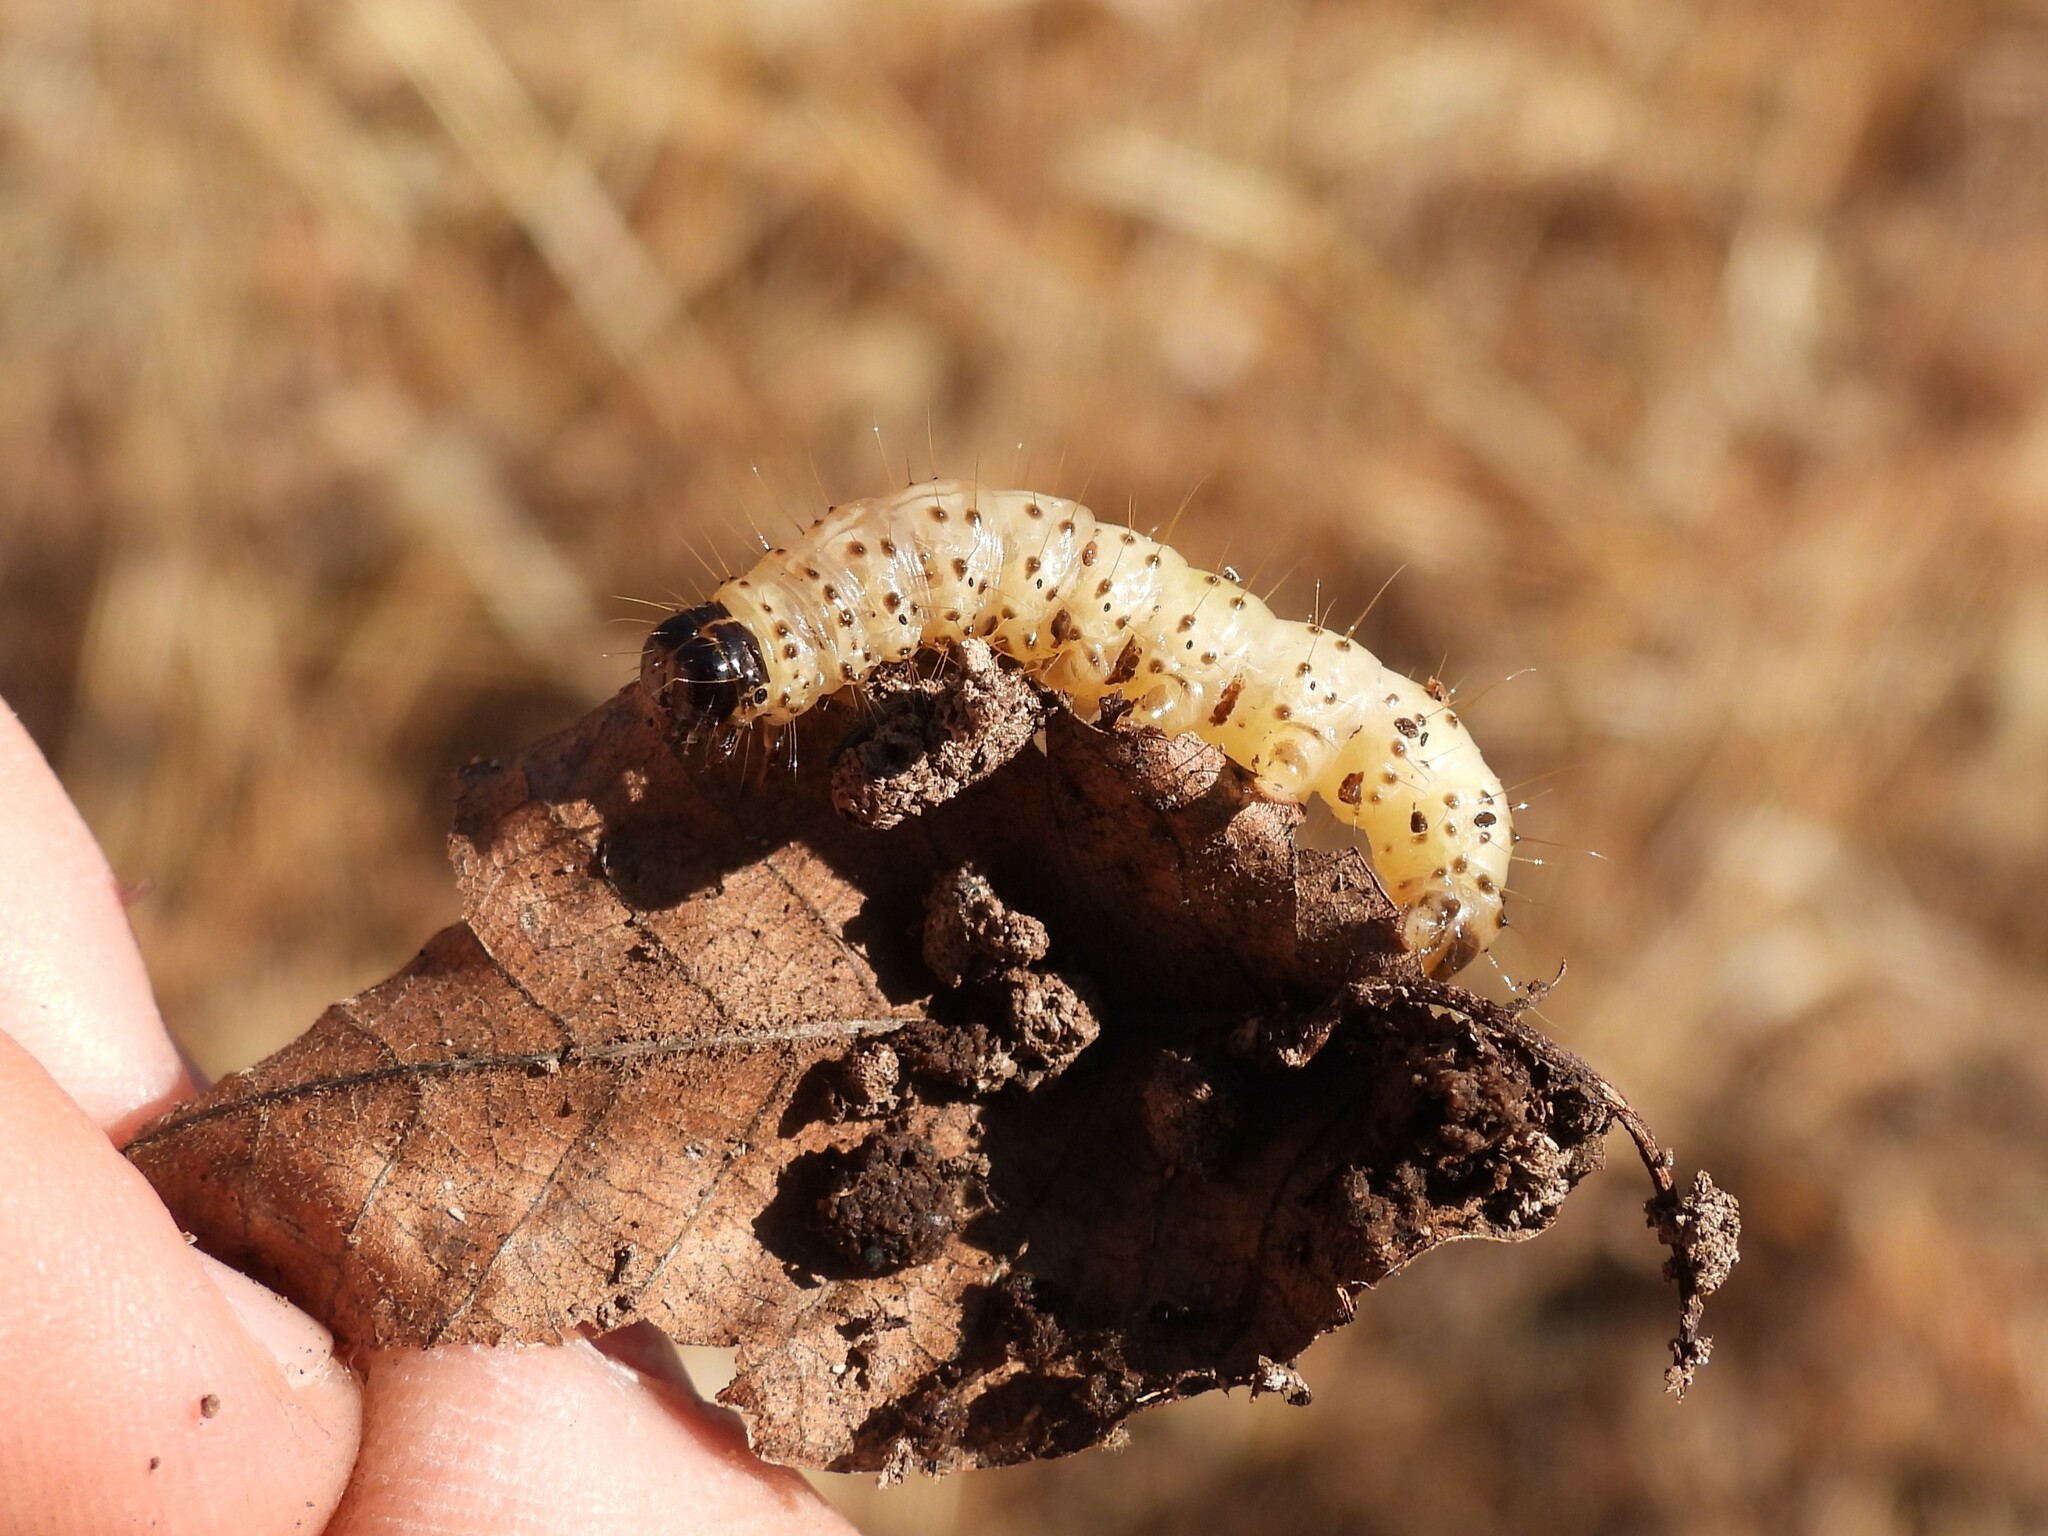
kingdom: Animalia
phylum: Arthropoda
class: Insecta
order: Lepidoptera
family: Erebidae
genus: Scolecocampa
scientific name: Scolecocampa liburna
